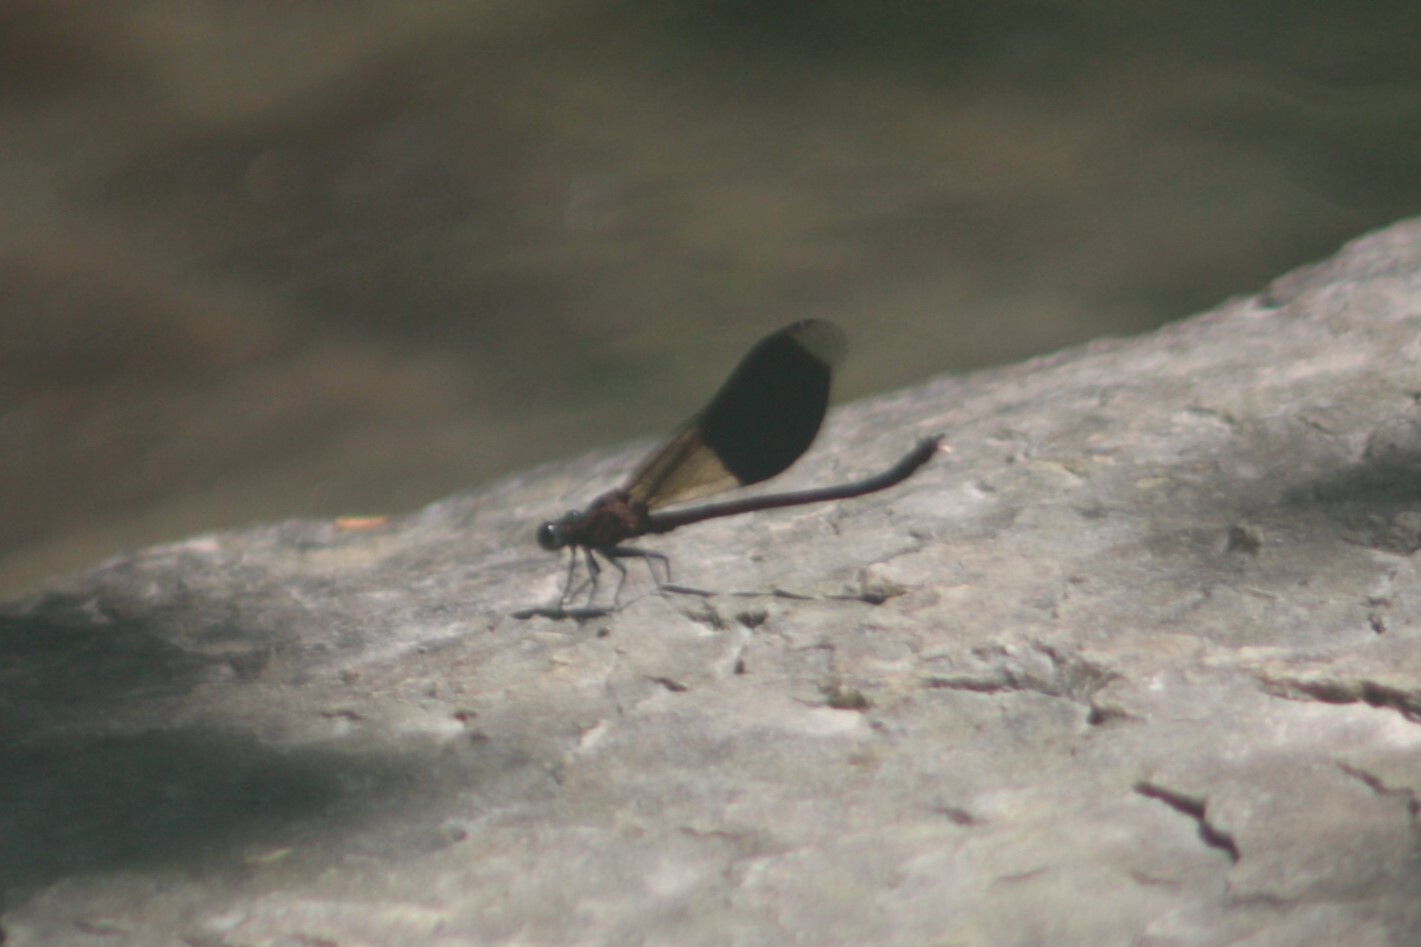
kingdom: Animalia
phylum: Arthropoda
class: Insecta
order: Odonata
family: Euphaeidae
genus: Euphaea
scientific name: Euphaea formosa
